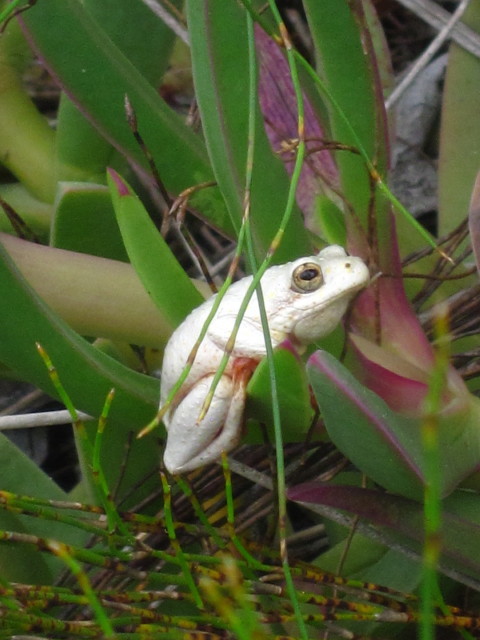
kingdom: Animalia
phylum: Chordata
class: Amphibia
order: Anura
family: Hyperoliidae
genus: Hyperolius
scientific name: Hyperolius marmoratus
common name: Painted reed frog
